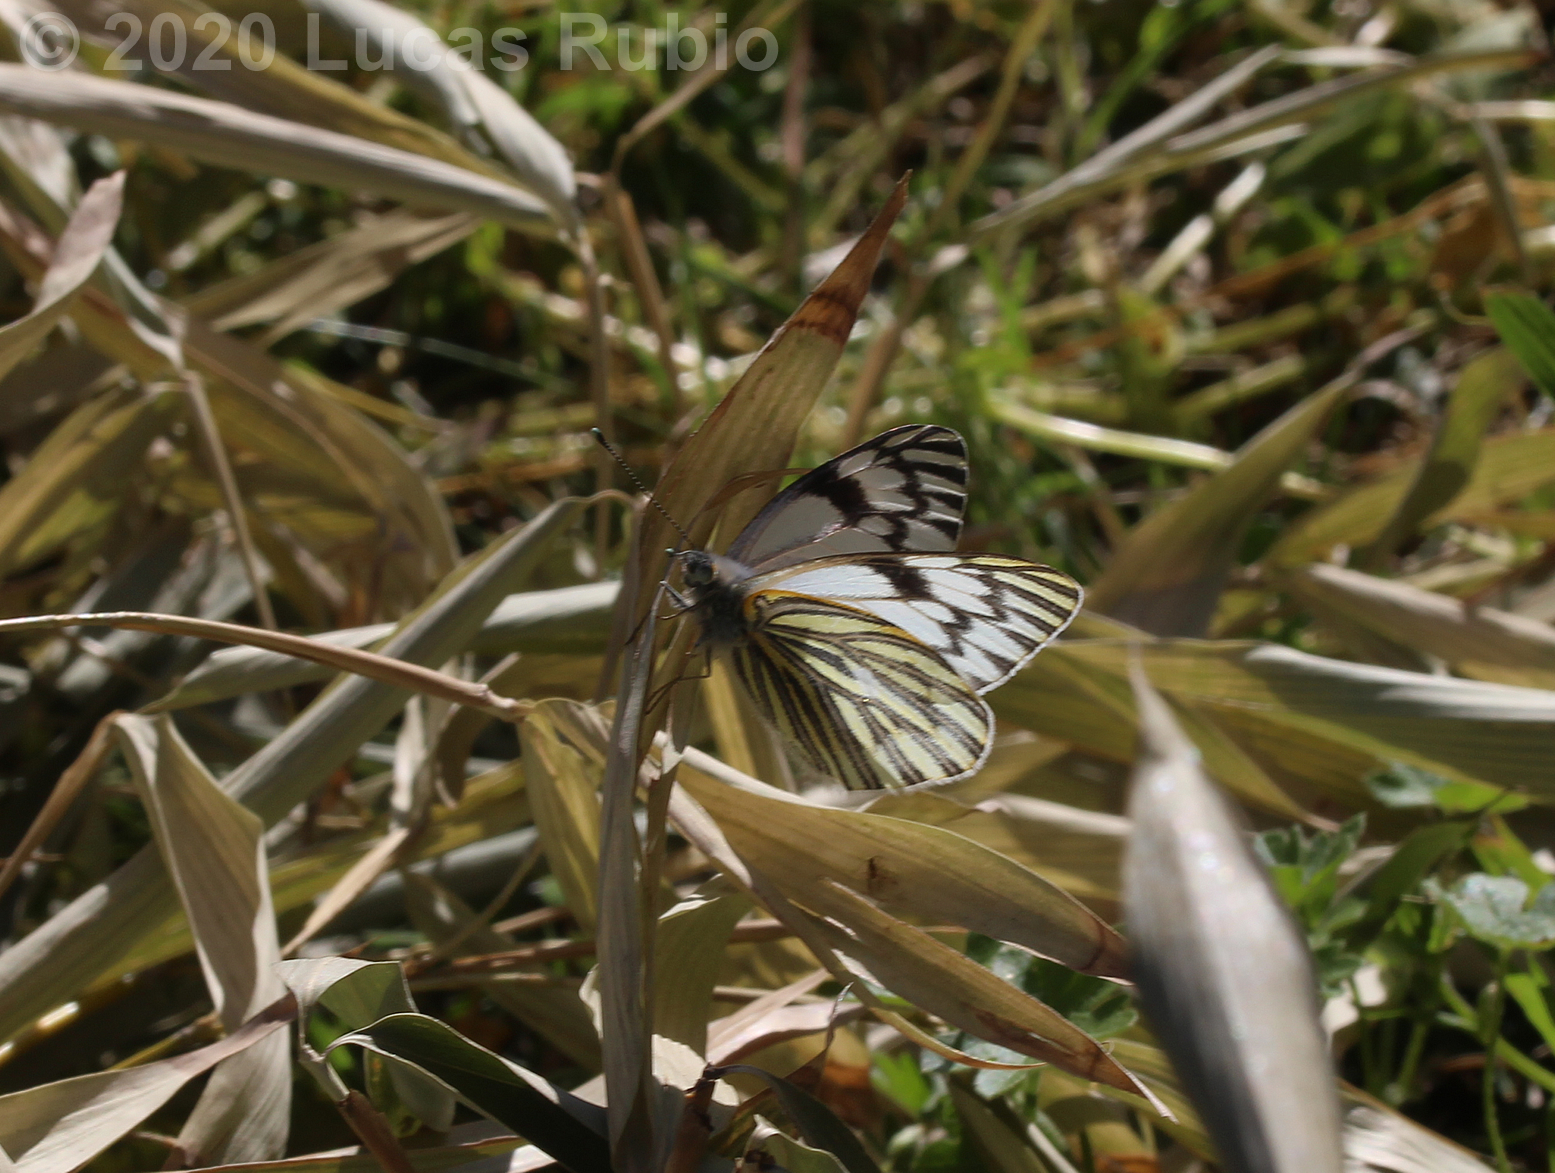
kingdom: Animalia
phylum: Arthropoda
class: Insecta
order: Lepidoptera
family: Pieridae
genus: Tatochila
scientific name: Tatochila mercedis
